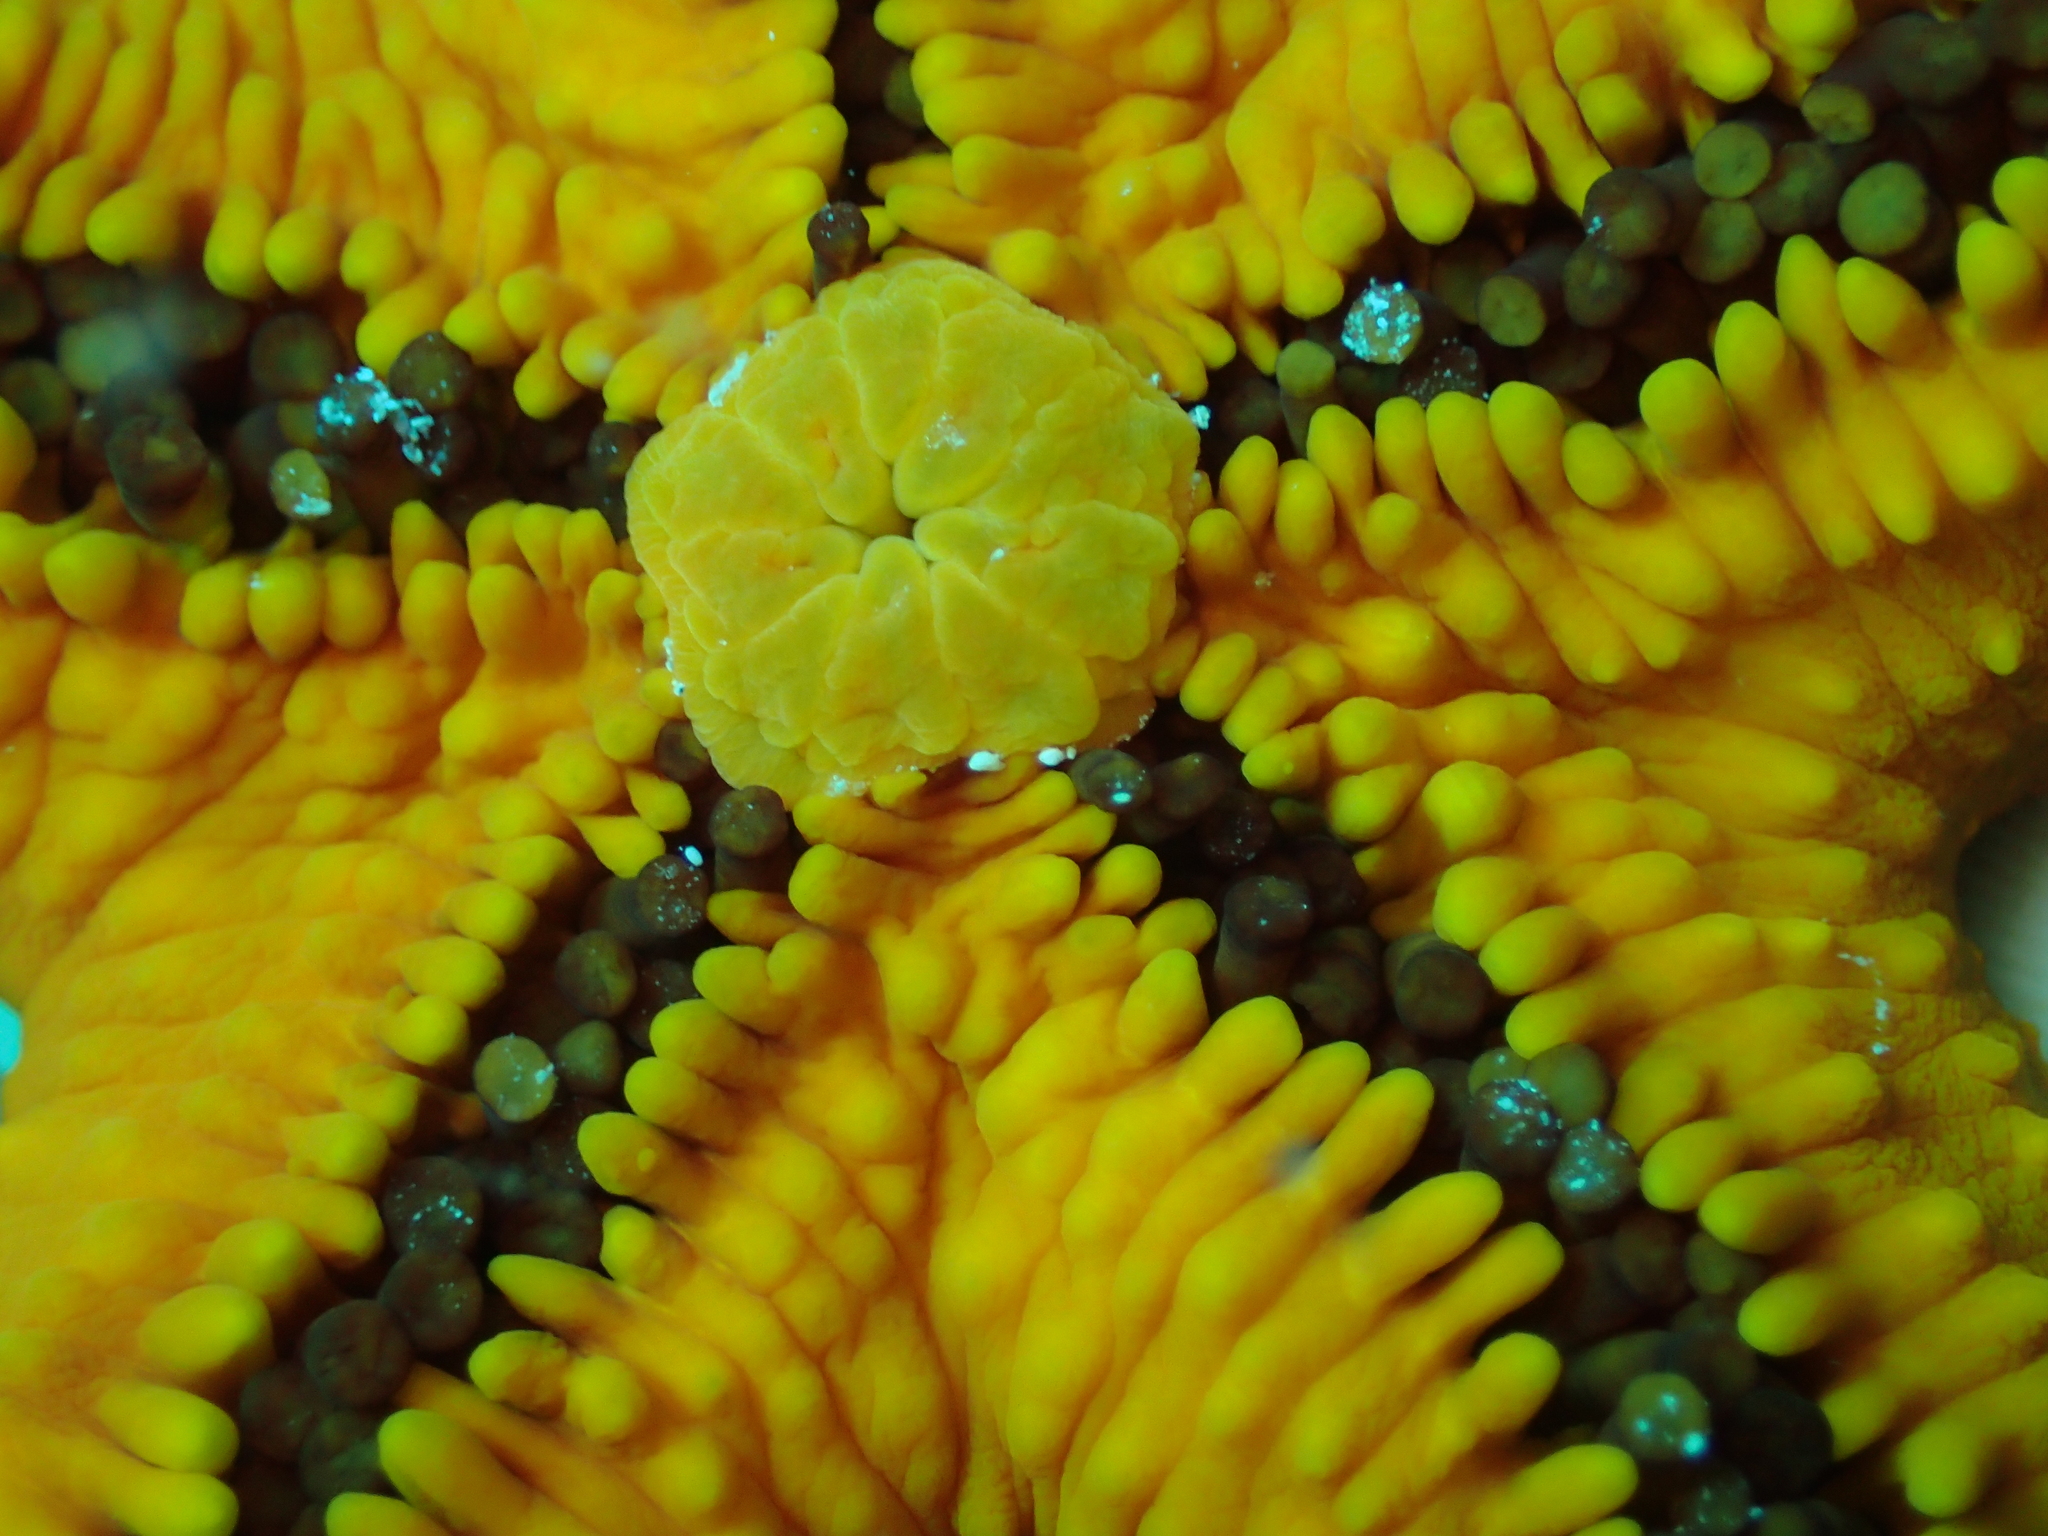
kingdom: Animalia
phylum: Echinodermata
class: Asteroidea
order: Spinulosida
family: Echinasteridae
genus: Echinaster
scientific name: Echinaster sepositus
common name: Red starfish
